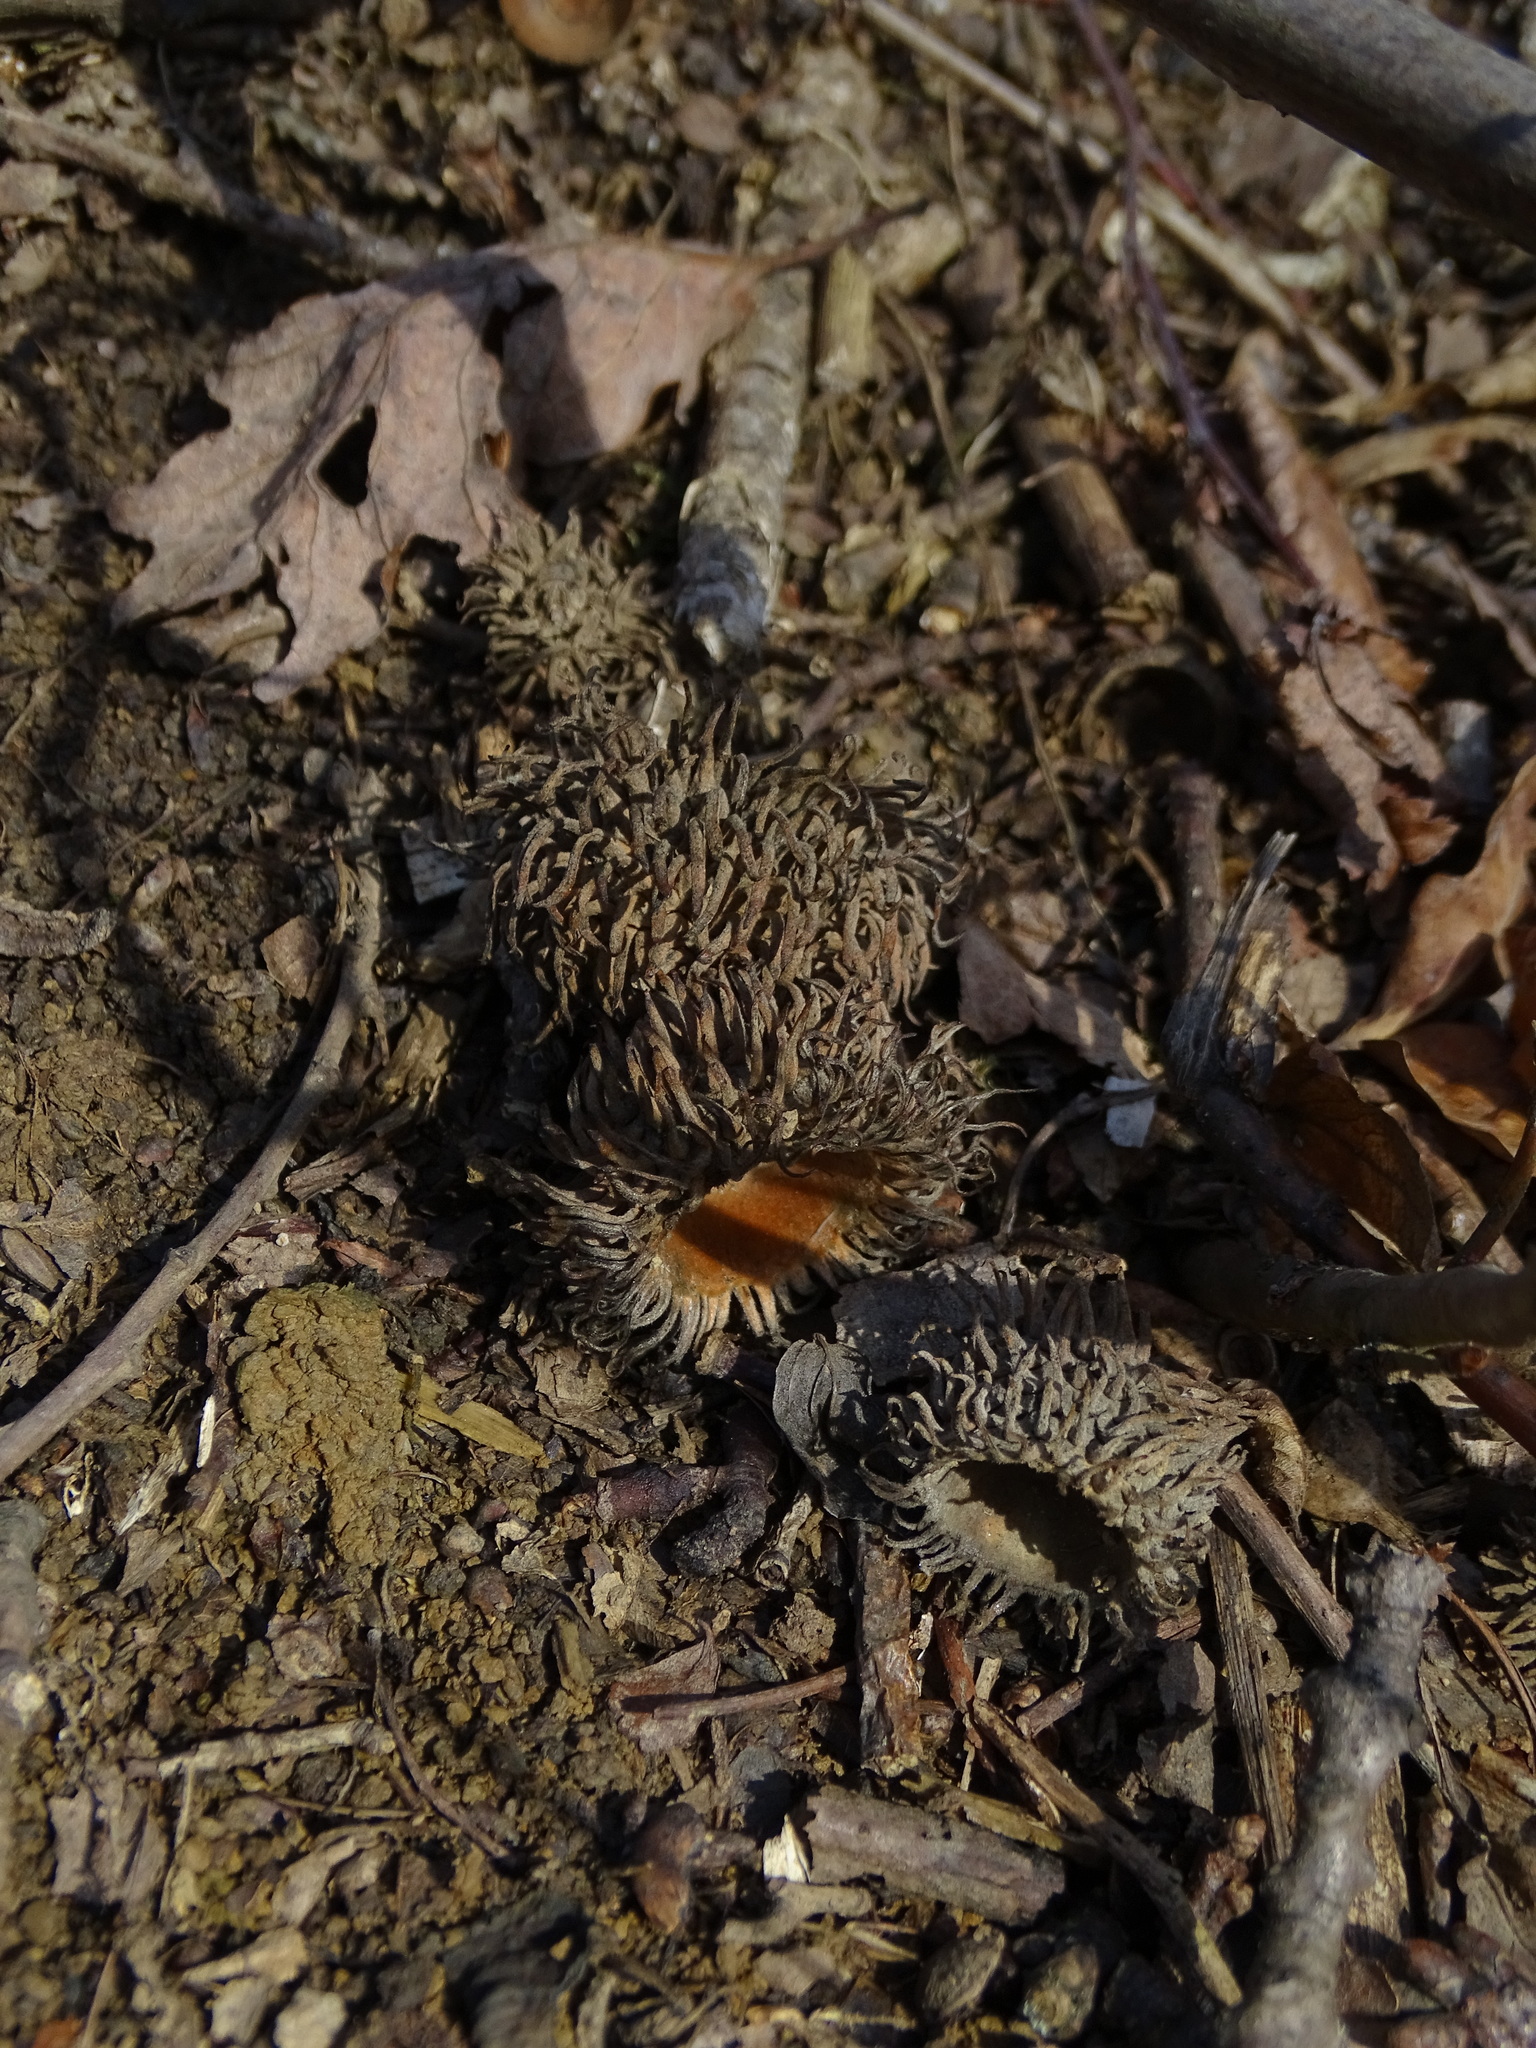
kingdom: Plantae
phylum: Tracheophyta
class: Magnoliopsida
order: Fagales
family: Fagaceae
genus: Quercus
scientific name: Quercus cerris
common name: Turkey oak
